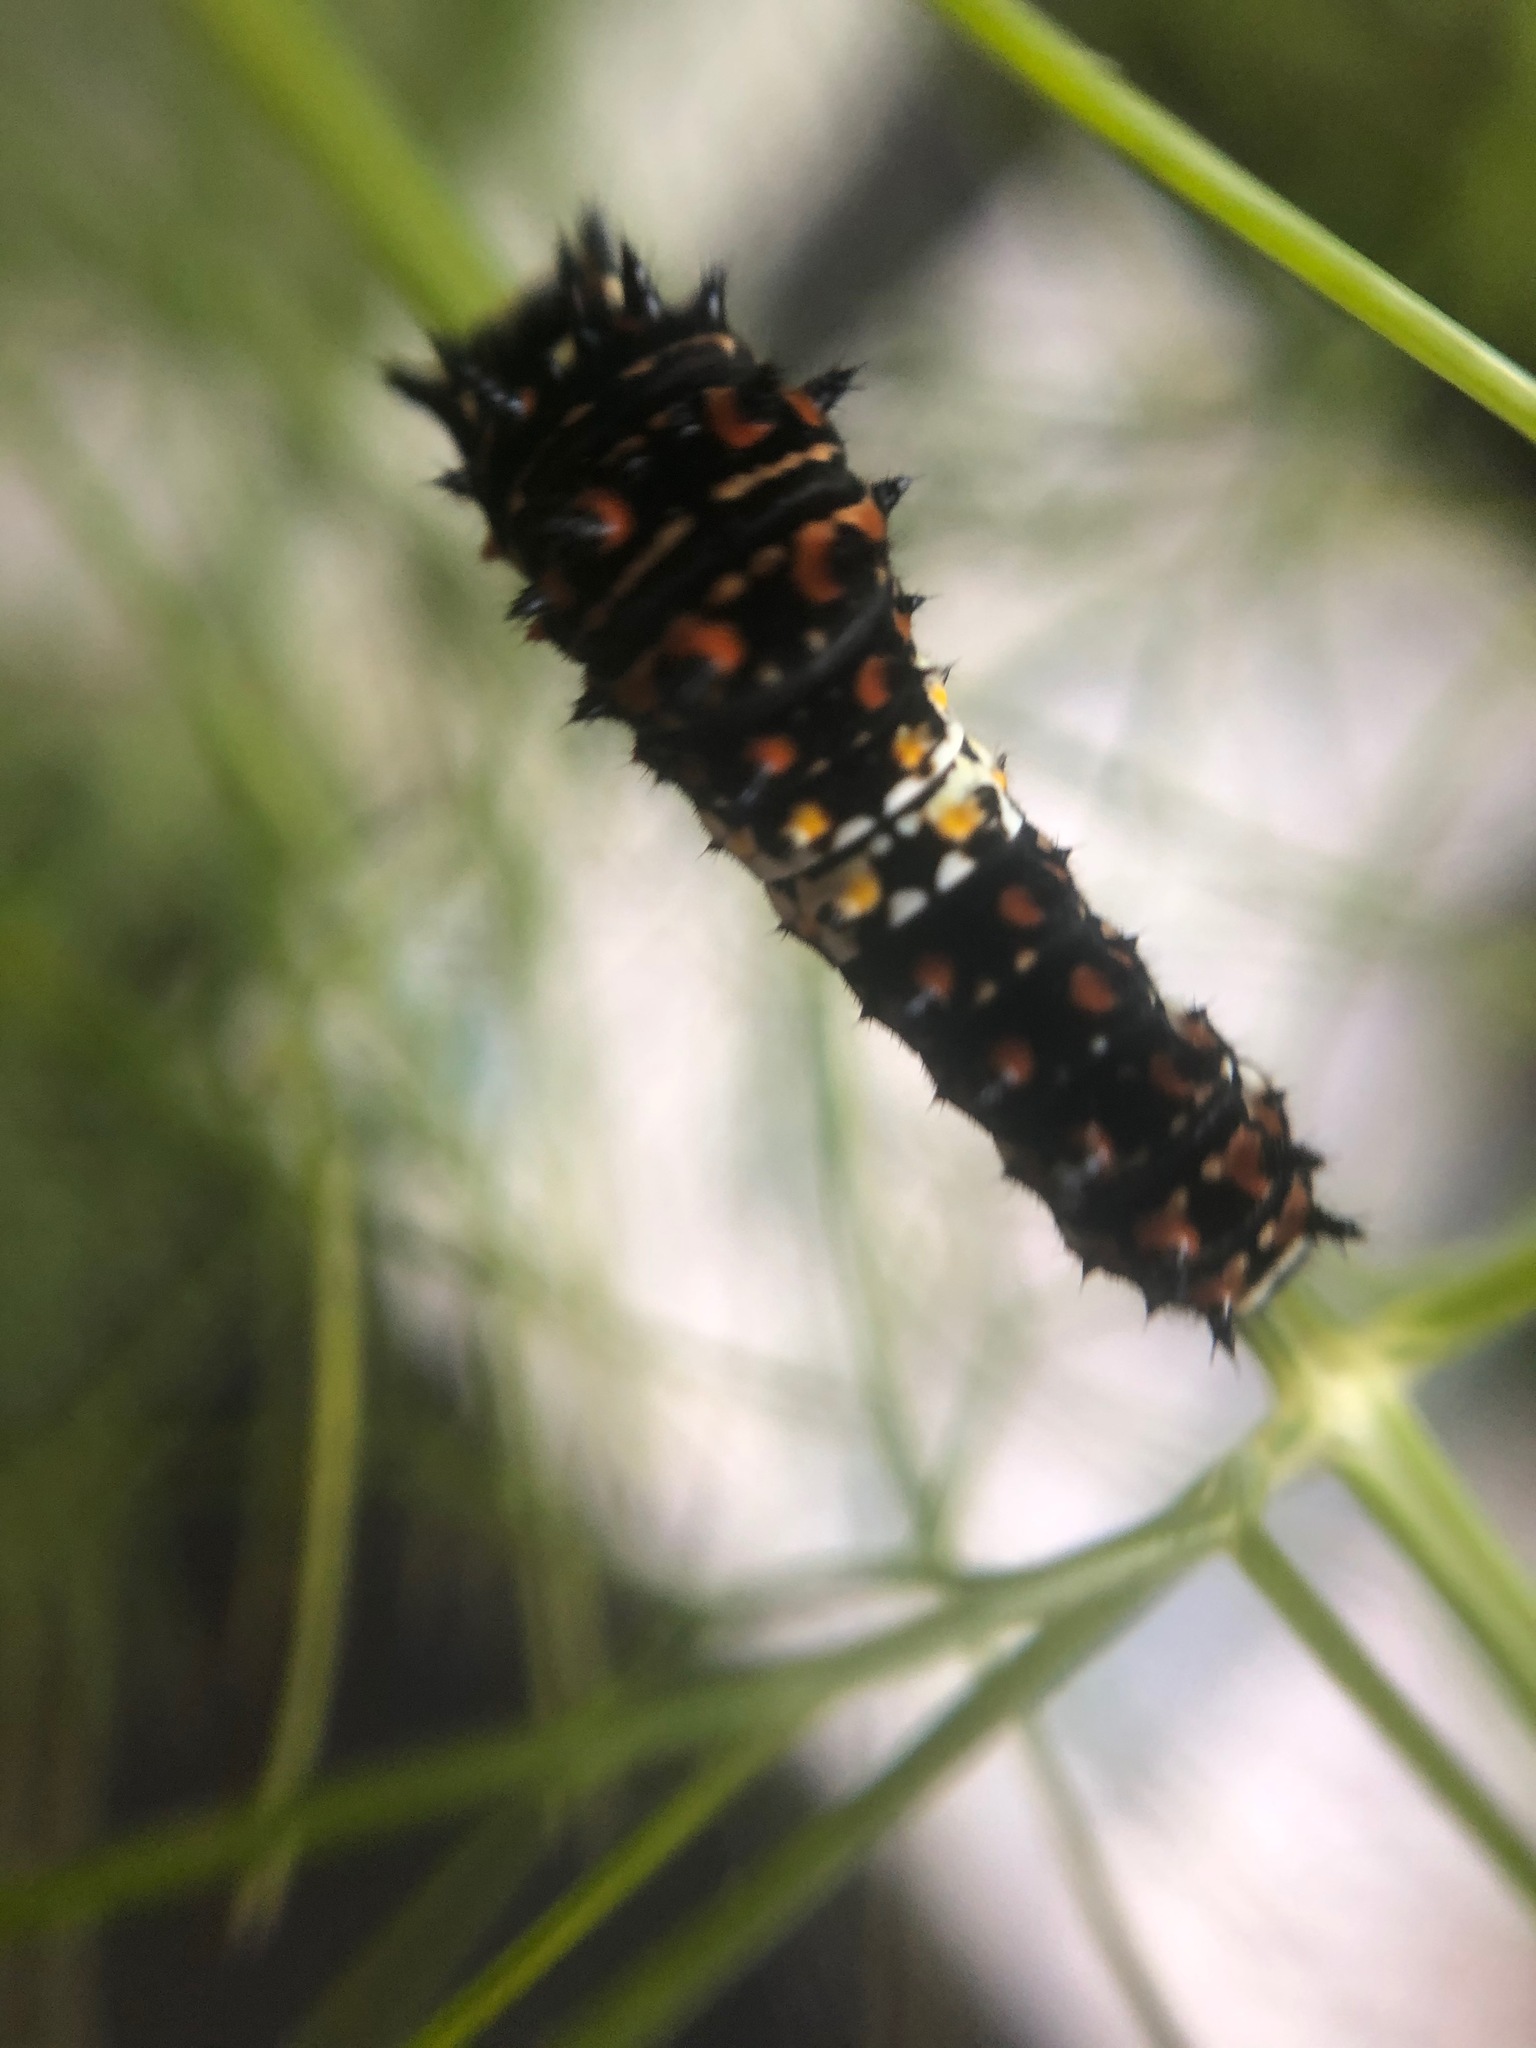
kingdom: Animalia
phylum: Arthropoda
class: Insecta
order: Lepidoptera
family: Papilionidae
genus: Papilio
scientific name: Papilio zelicaon
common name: Anise swallowtail
